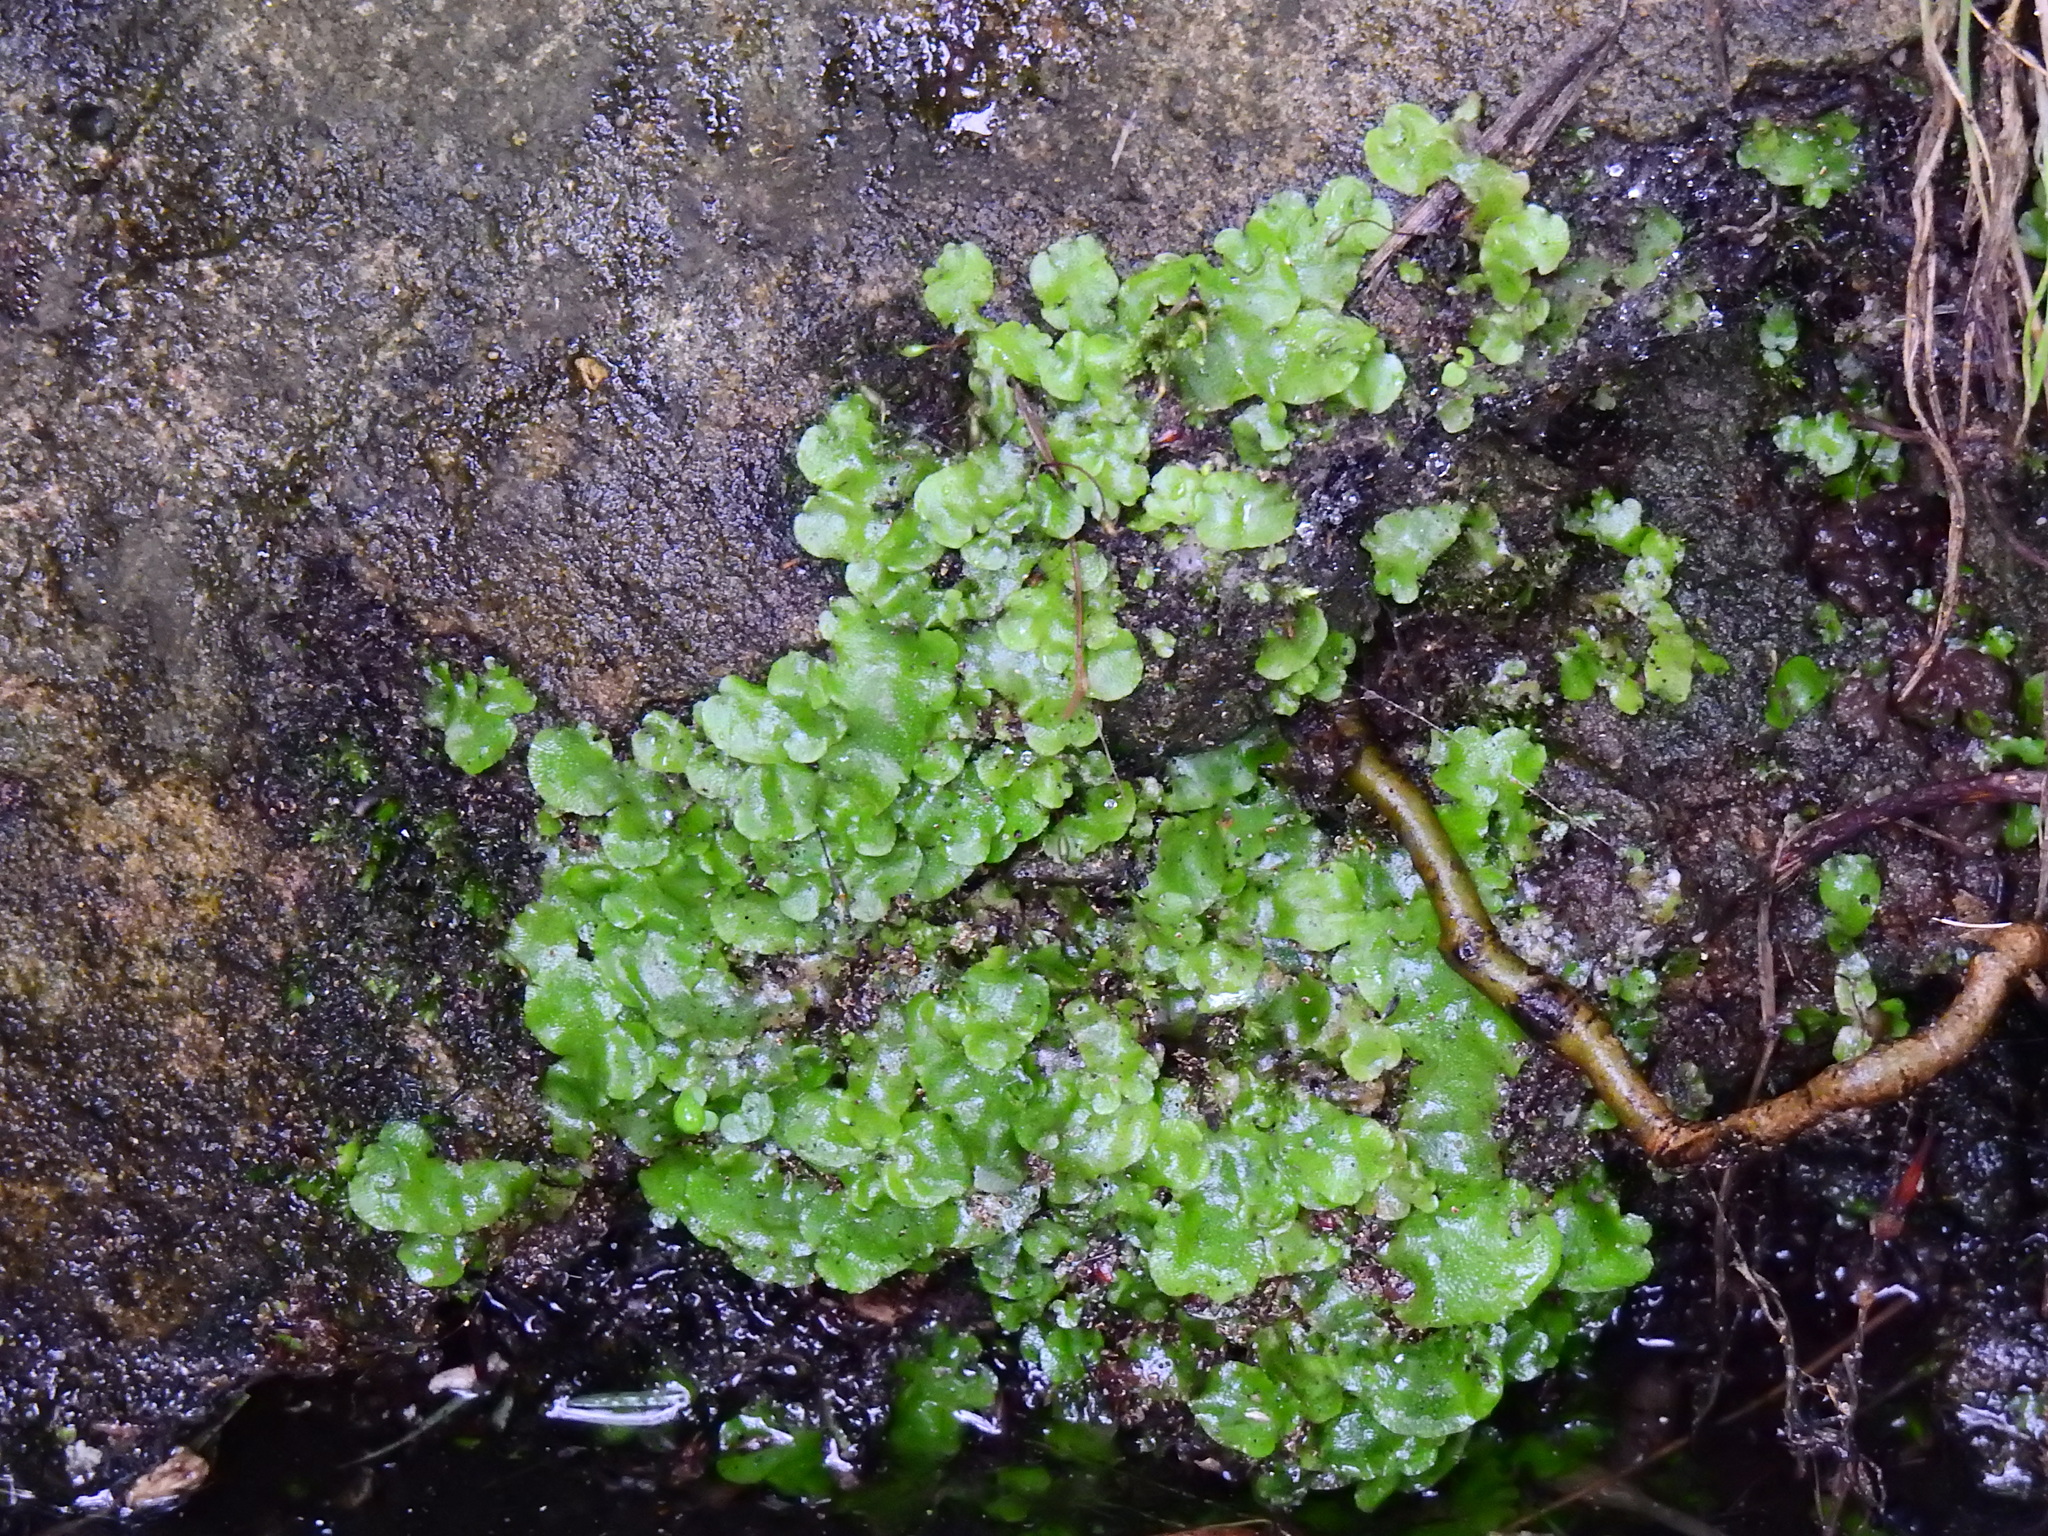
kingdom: Plantae
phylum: Marchantiophyta
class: Marchantiopsida
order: Lunulariales
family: Lunulariaceae
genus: Lunularia
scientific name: Lunularia cruciata
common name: Crescent-cup liverwort
